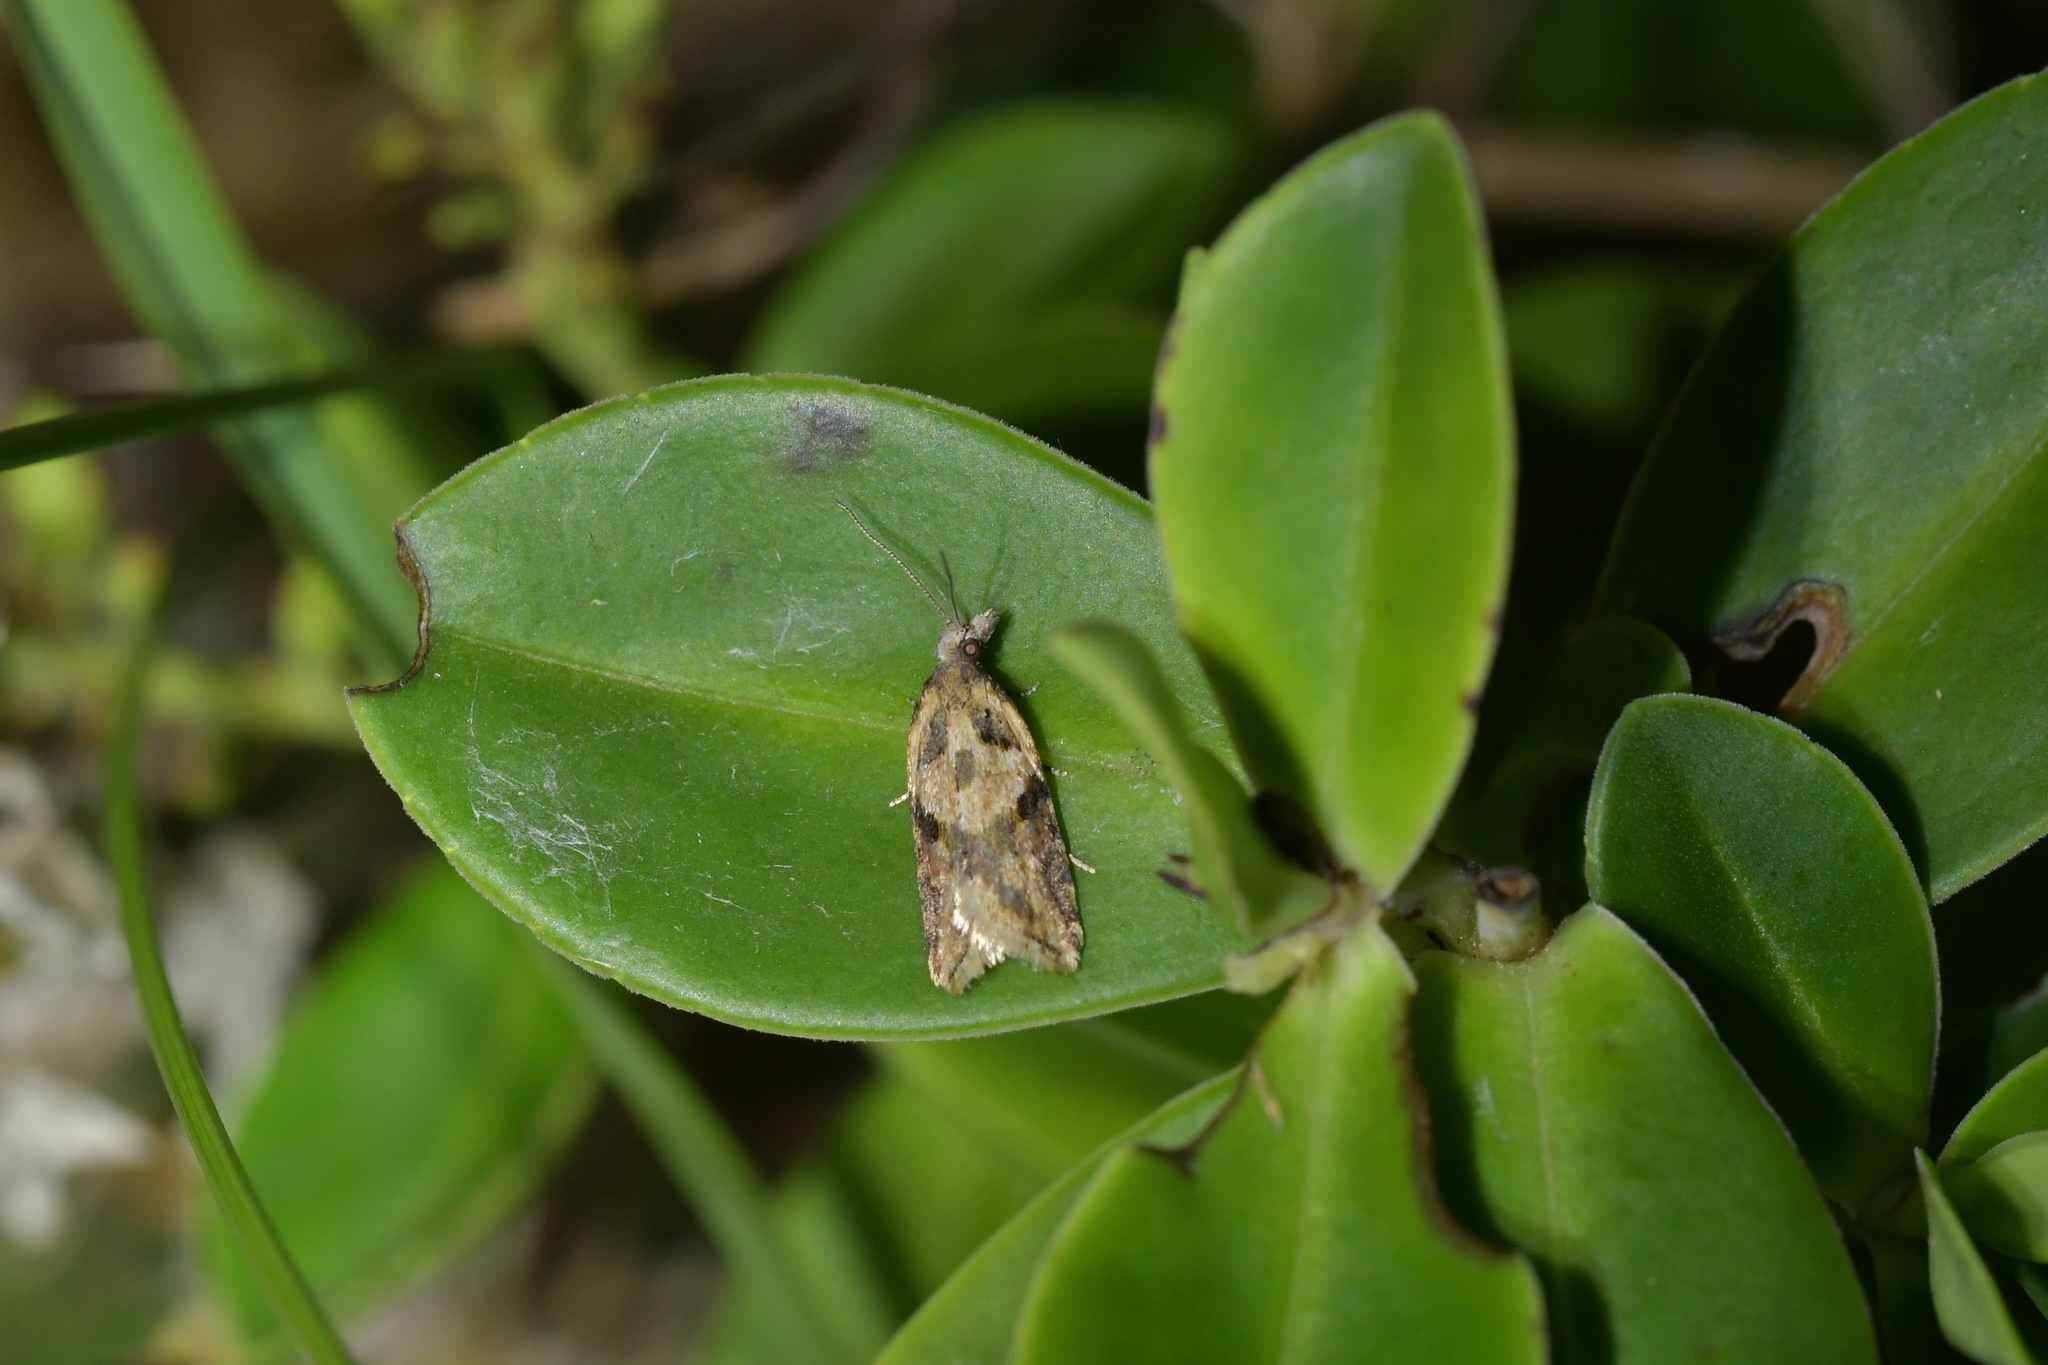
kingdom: Animalia
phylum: Arthropoda
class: Insecta
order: Lepidoptera
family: Tortricidae
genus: Capua
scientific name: Capua semiferana
